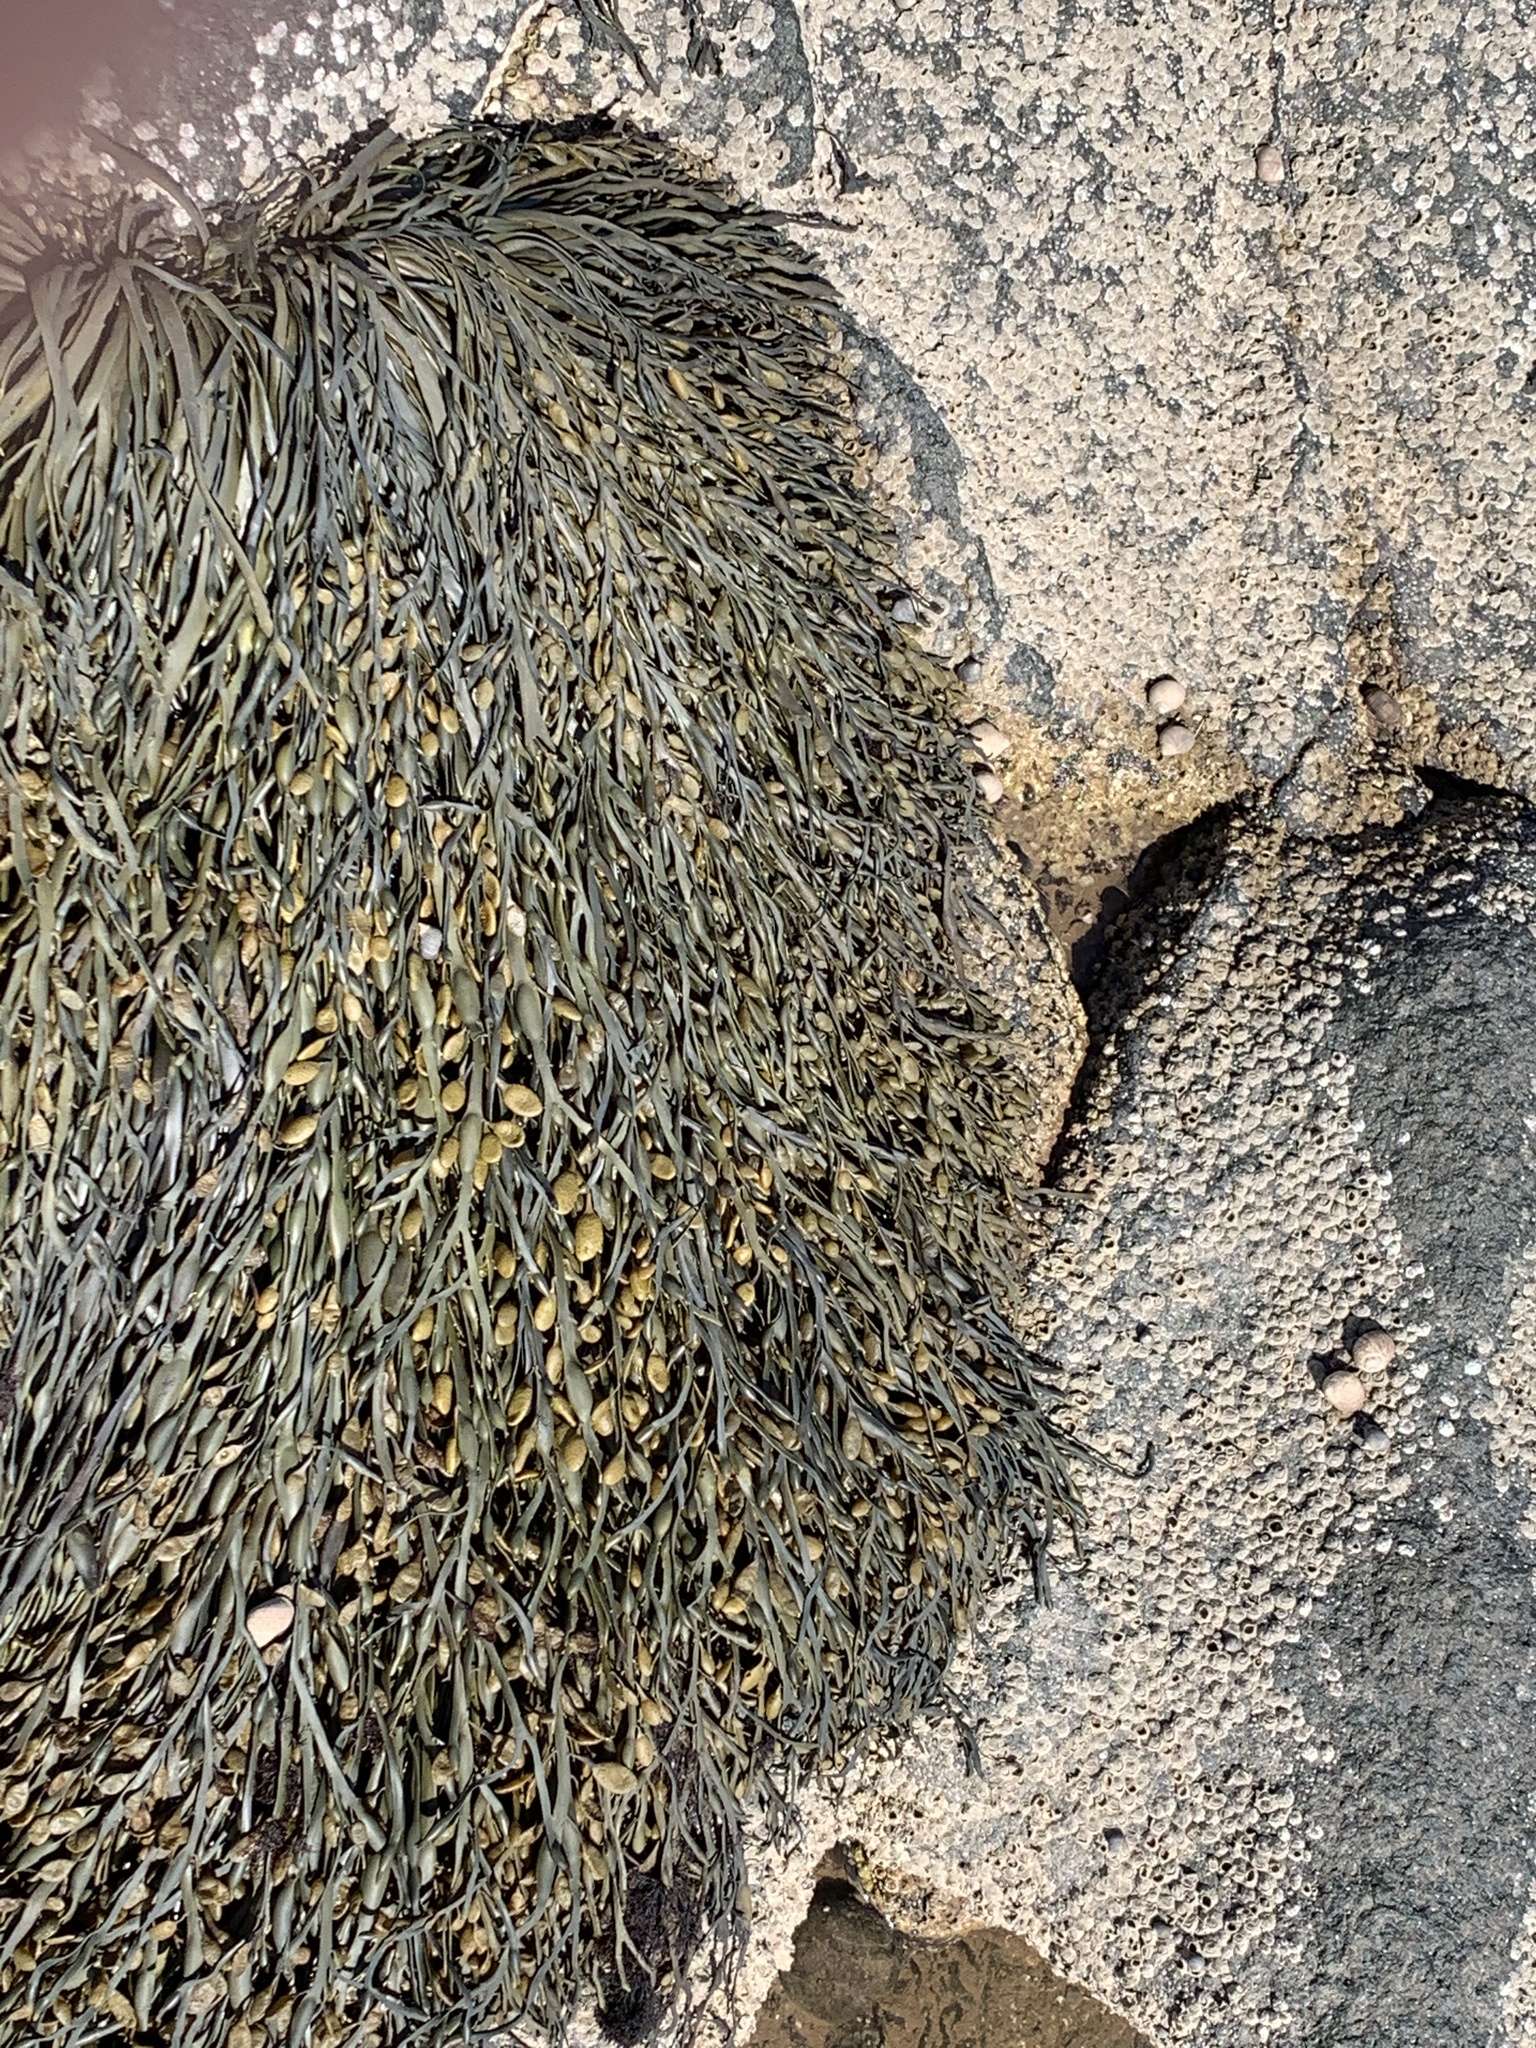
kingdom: Chromista
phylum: Ochrophyta
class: Phaeophyceae
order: Fucales
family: Fucaceae
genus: Ascophyllum
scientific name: Ascophyllum nodosum
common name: Knotted wrack
